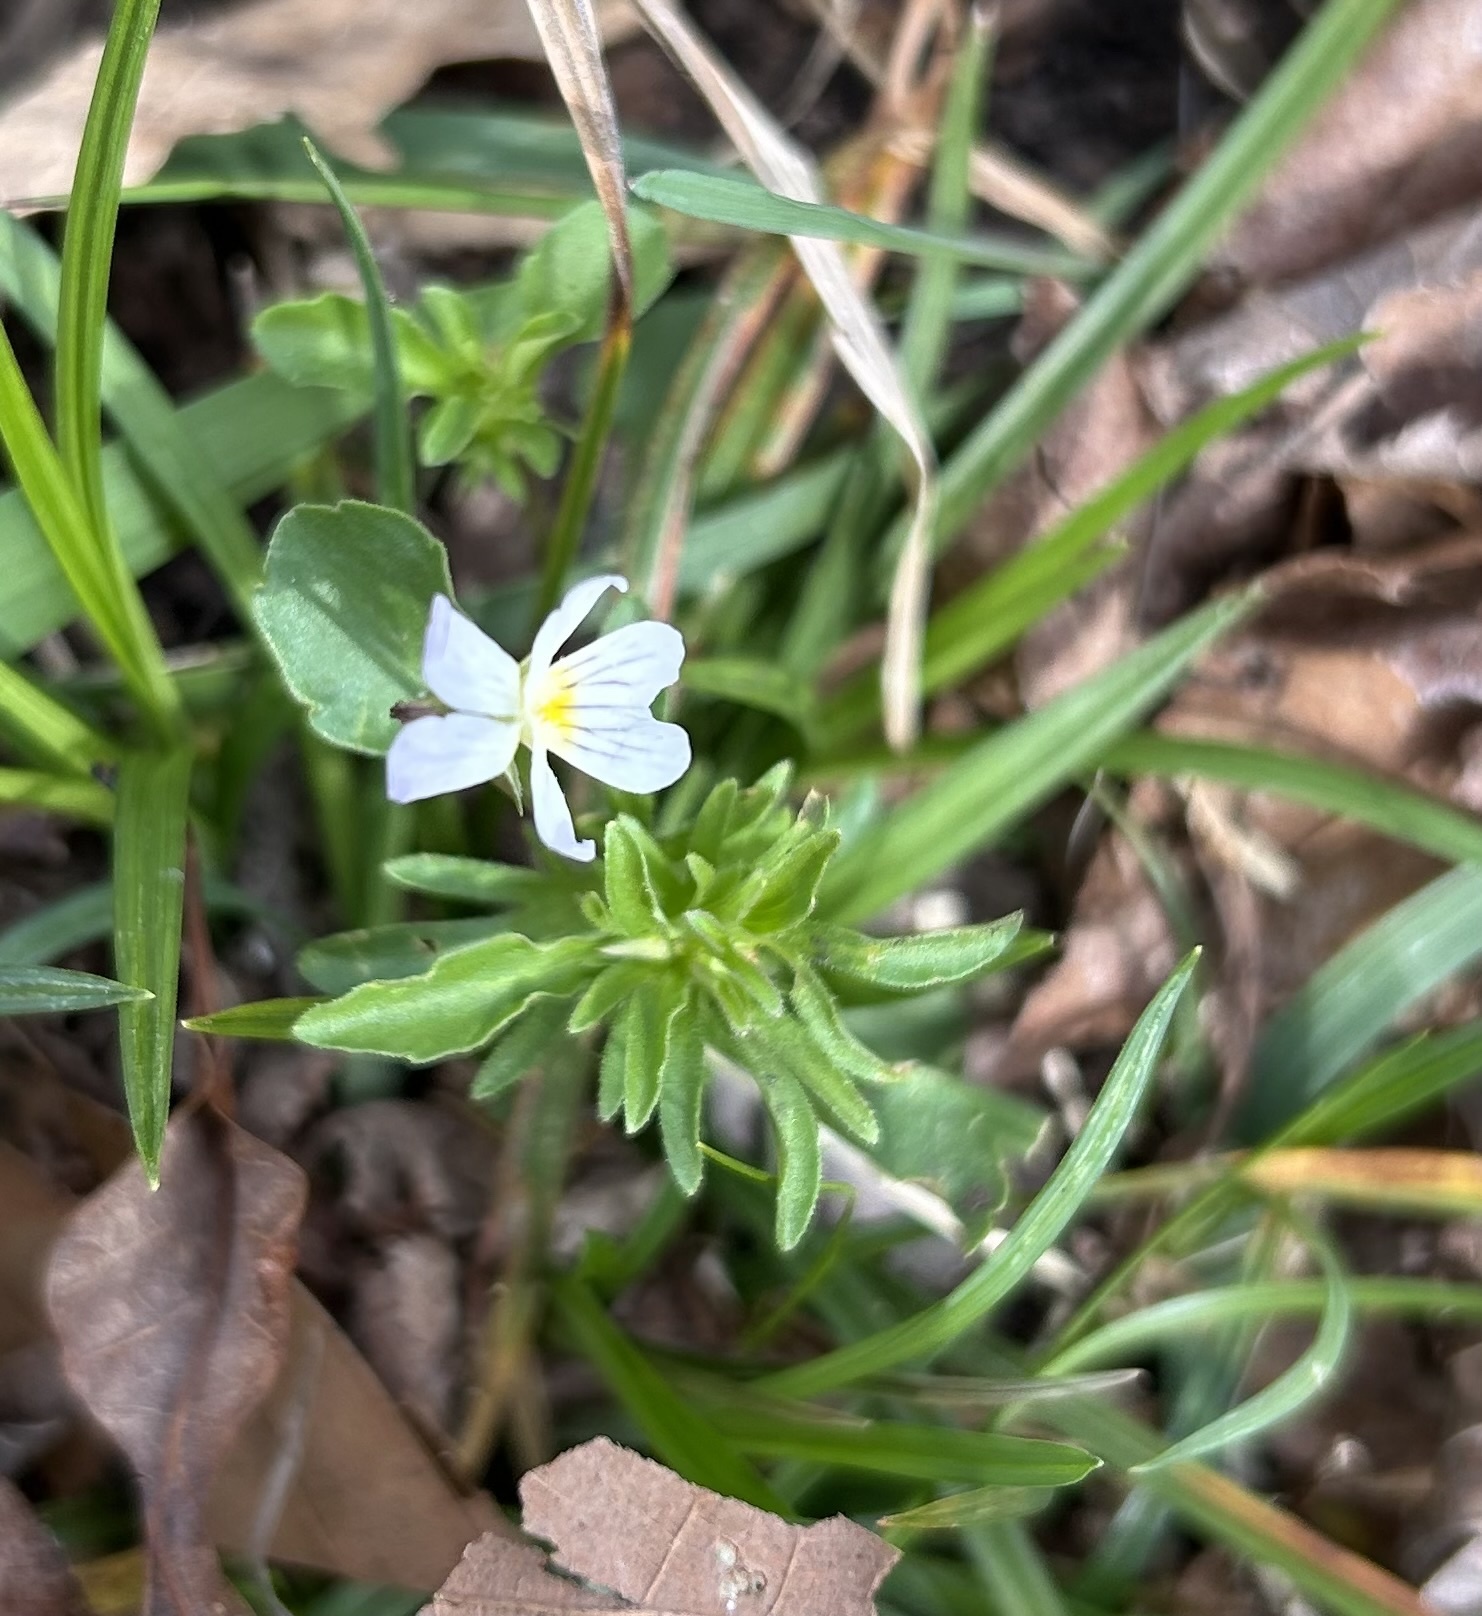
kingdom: Plantae
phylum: Tracheophyta
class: Magnoliopsida
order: Malpighiales
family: Violaceae
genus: Viola
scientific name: Viola rafinesquei
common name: American field pansy
